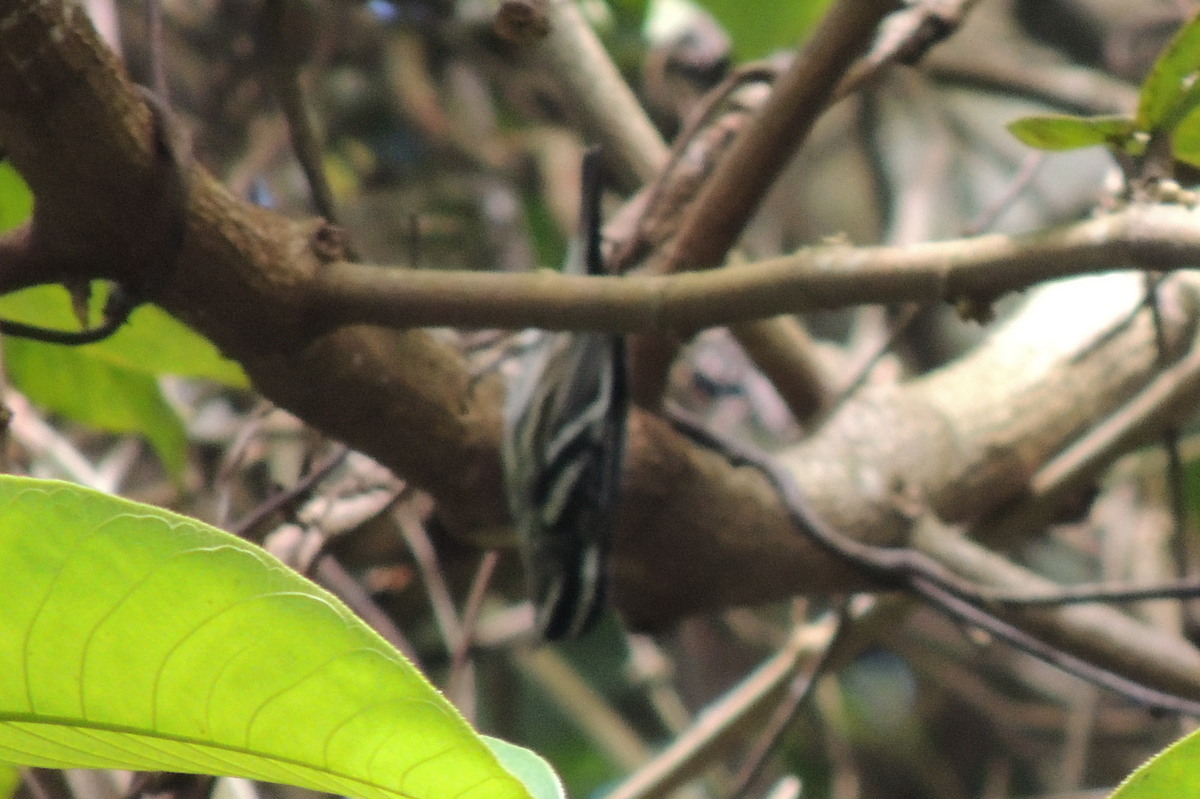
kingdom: Animalia
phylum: Chordata
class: Aves
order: Passeriformes
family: Parulidae
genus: Mniotilta
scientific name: Mniotilta varia
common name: Black-and-white warbler
